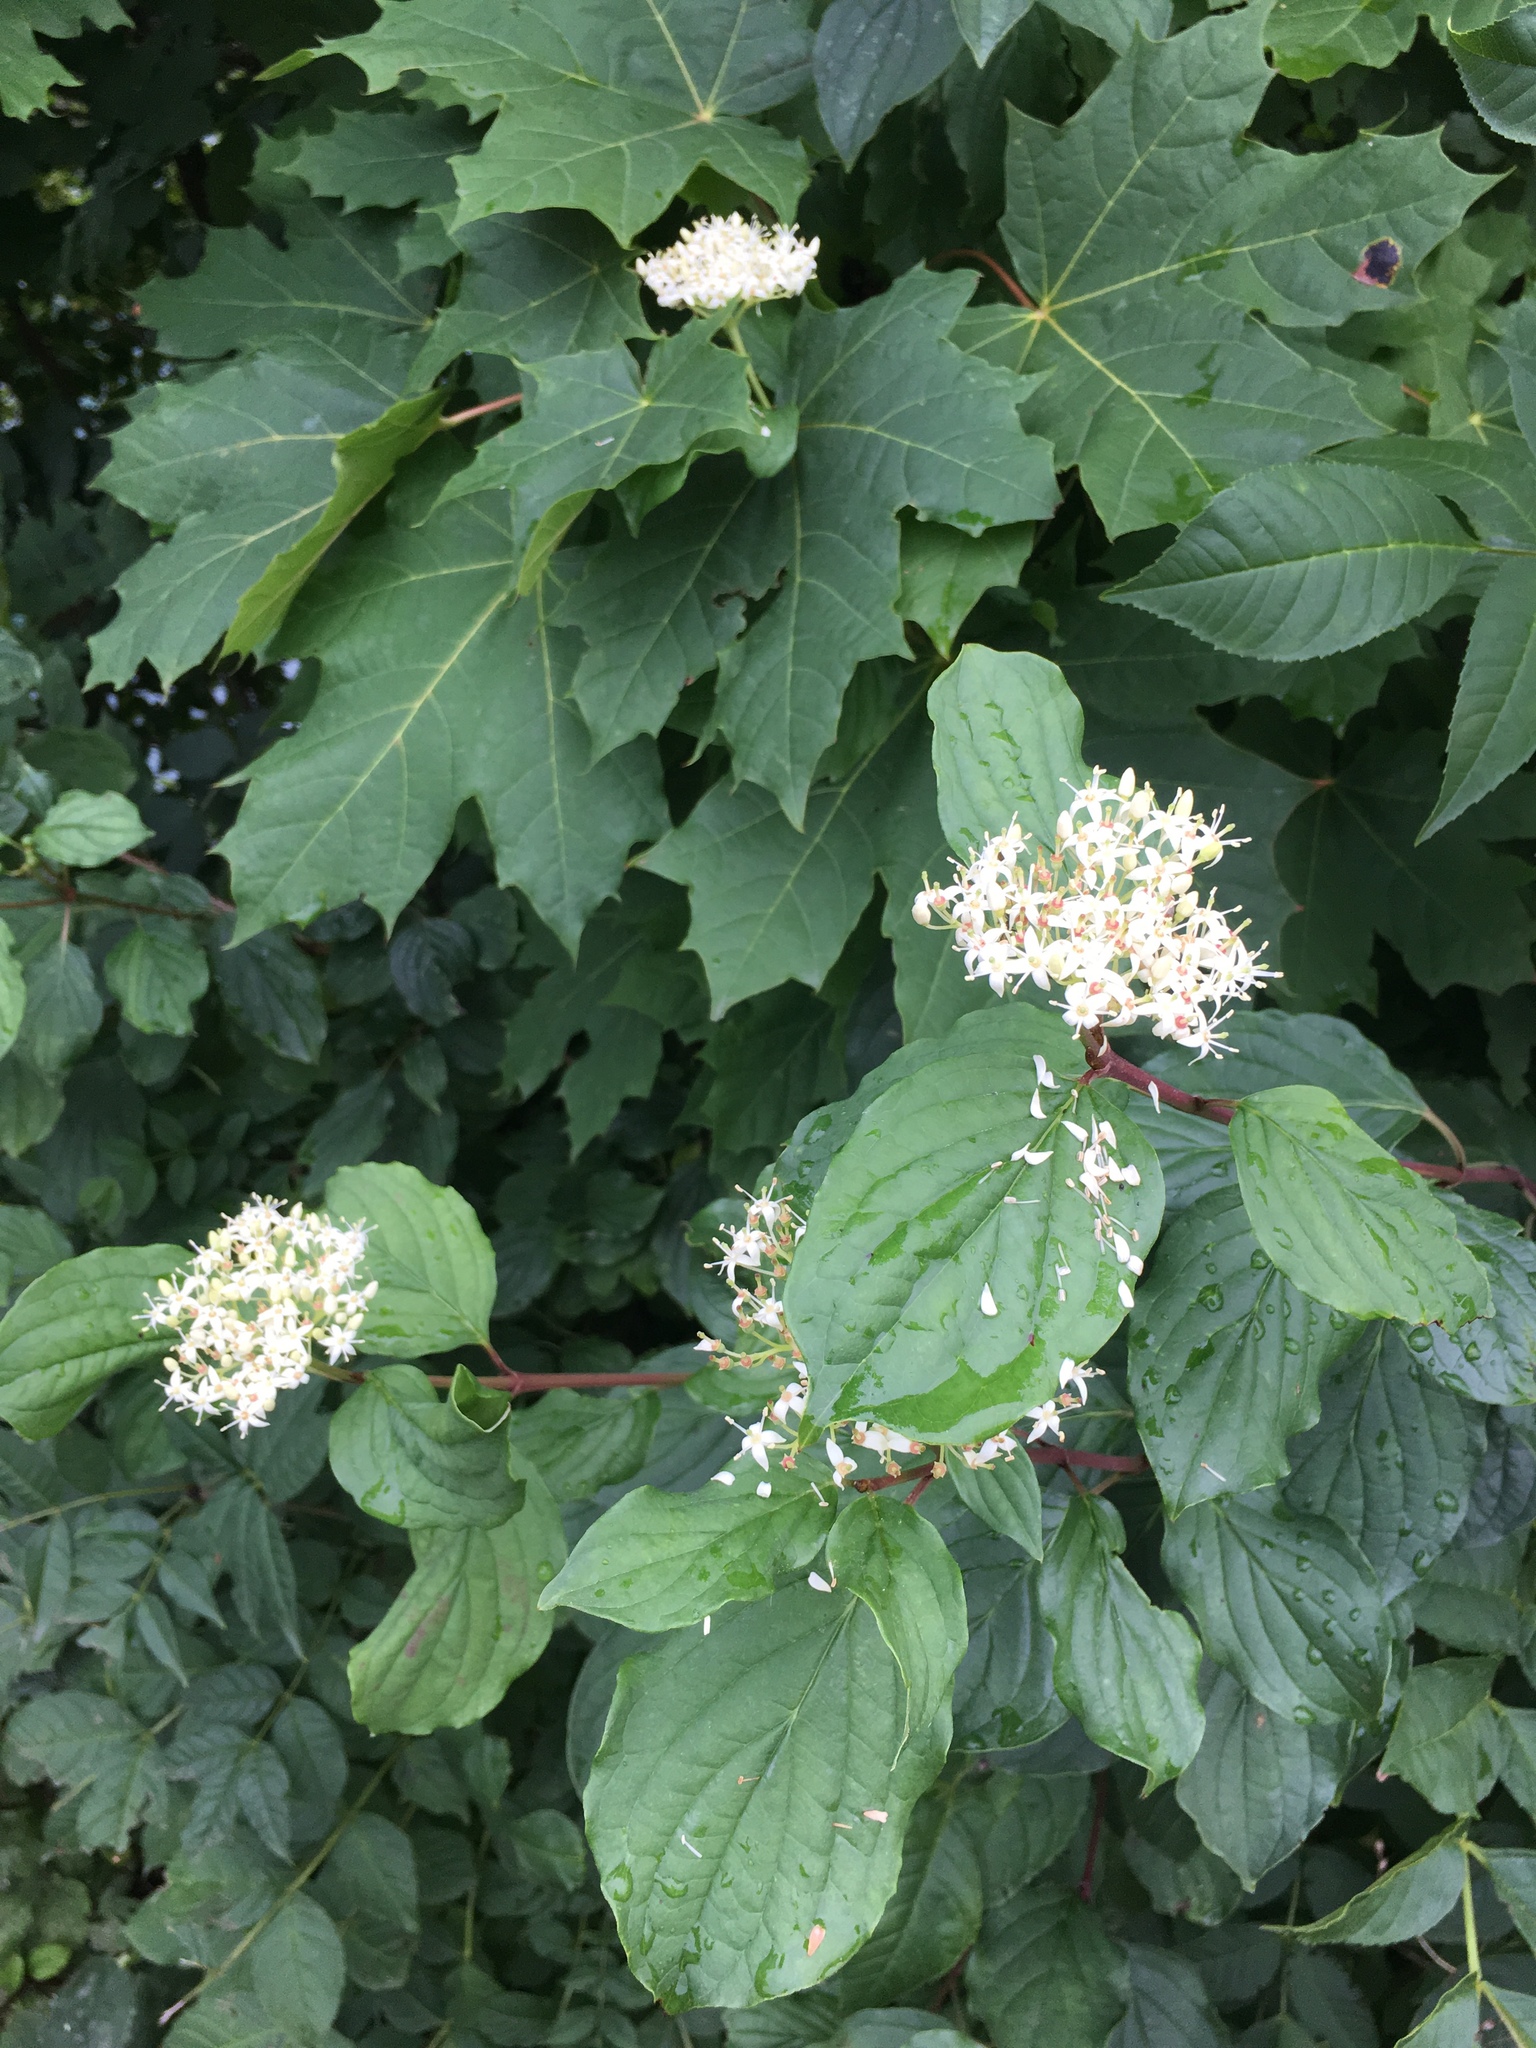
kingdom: Plantae
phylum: Tracheophyta
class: Magnoliopsida
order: Cornales
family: Cornaceae
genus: Cornus
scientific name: Cornus sanguinea
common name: Dogwood
